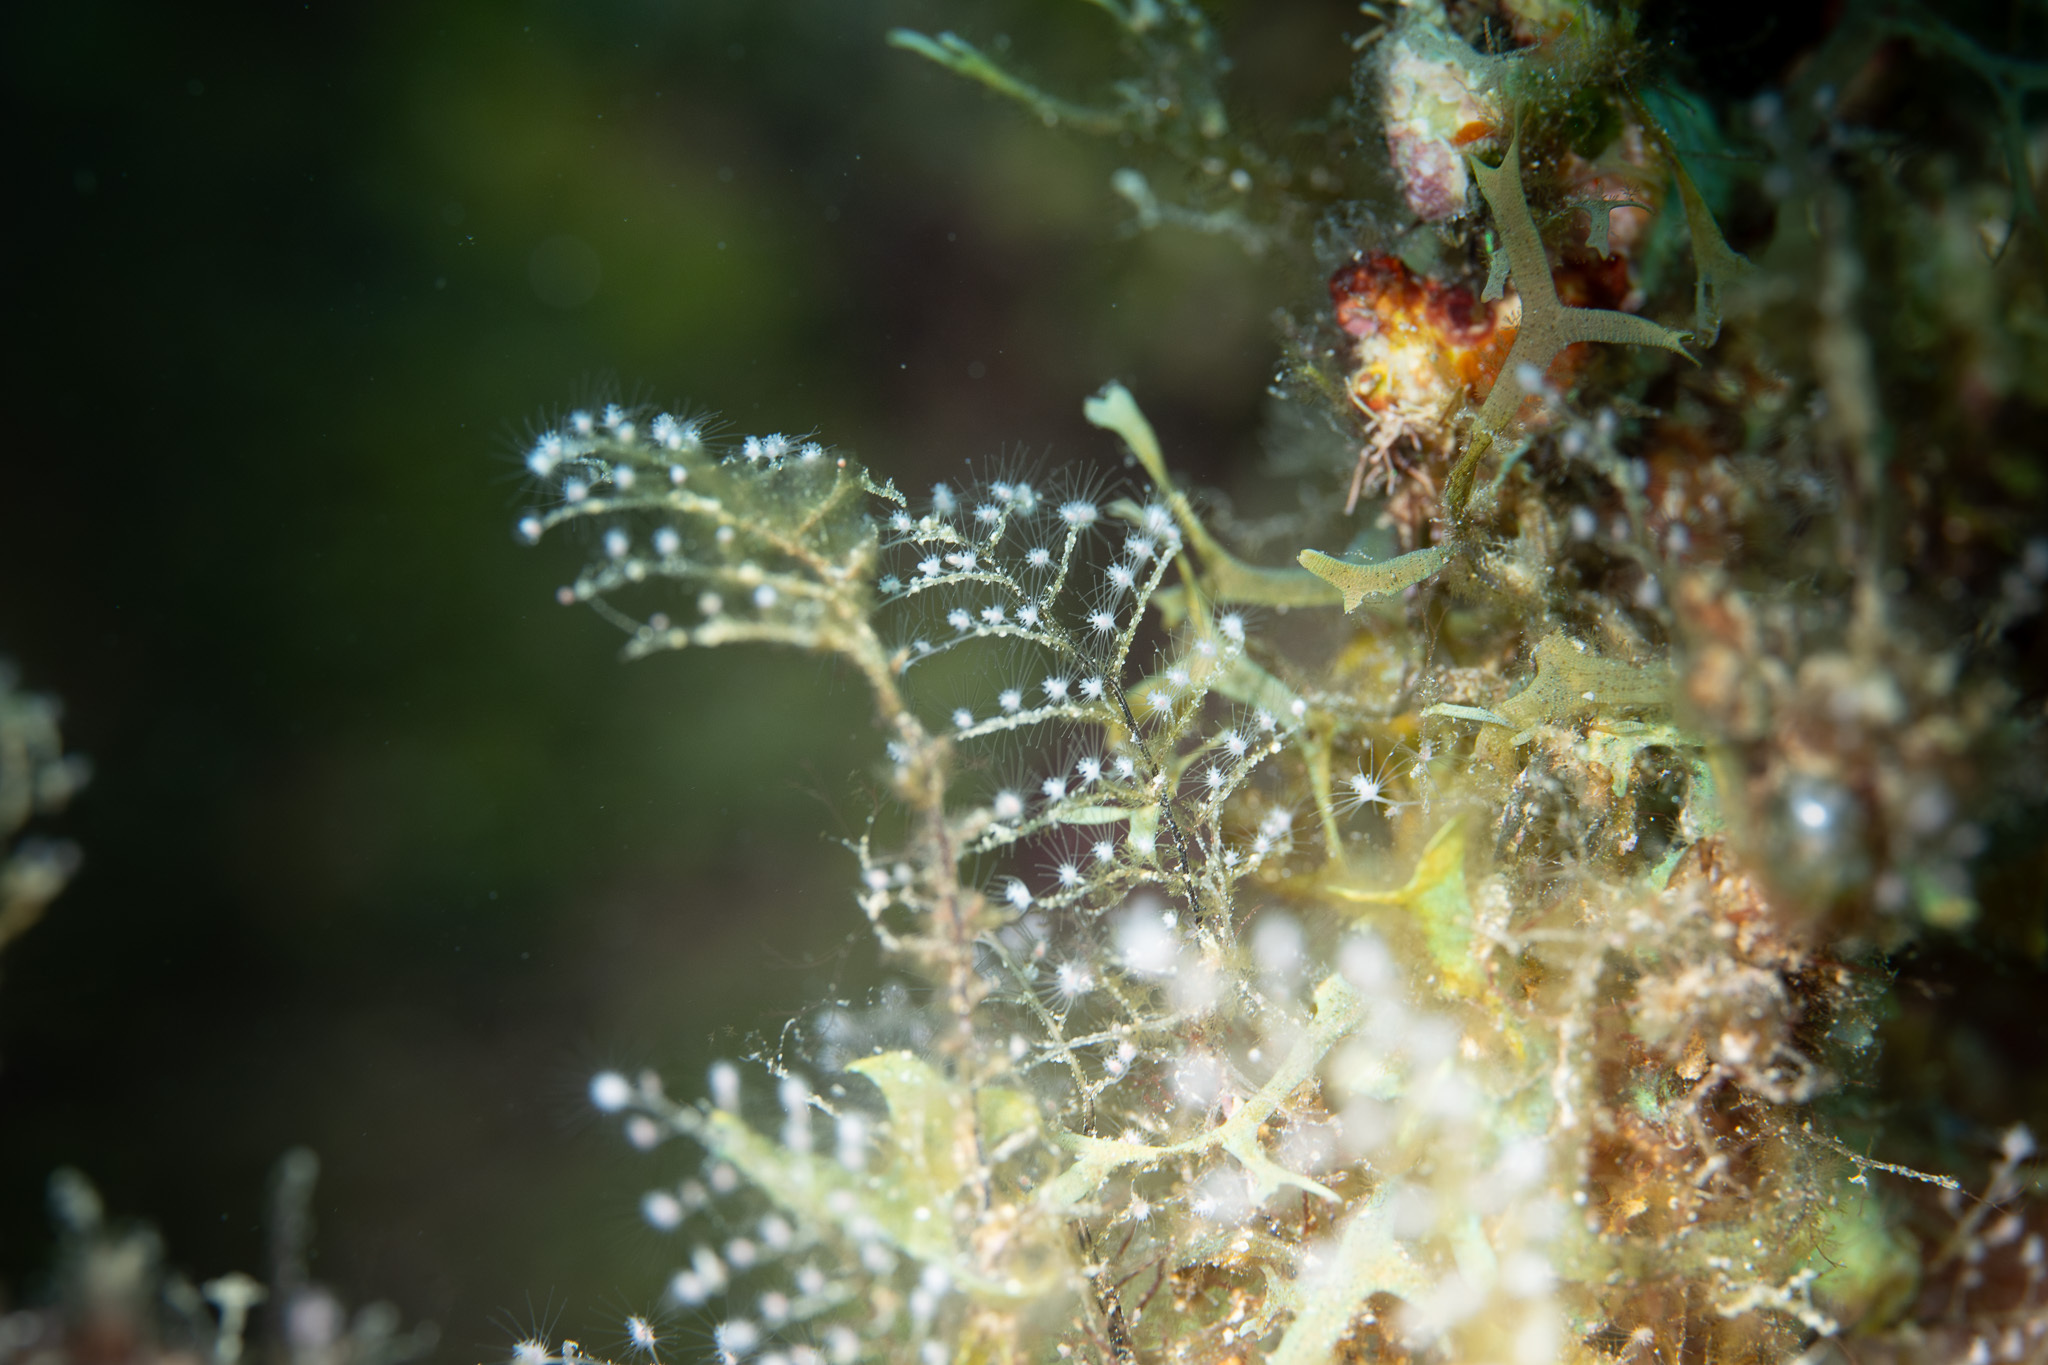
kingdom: Animalia
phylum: Cnidaria
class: Hydrozoa
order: Anthoathecata
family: Pennariidae
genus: Pennaria
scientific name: Pennaria disticha
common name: Feather hydroid
